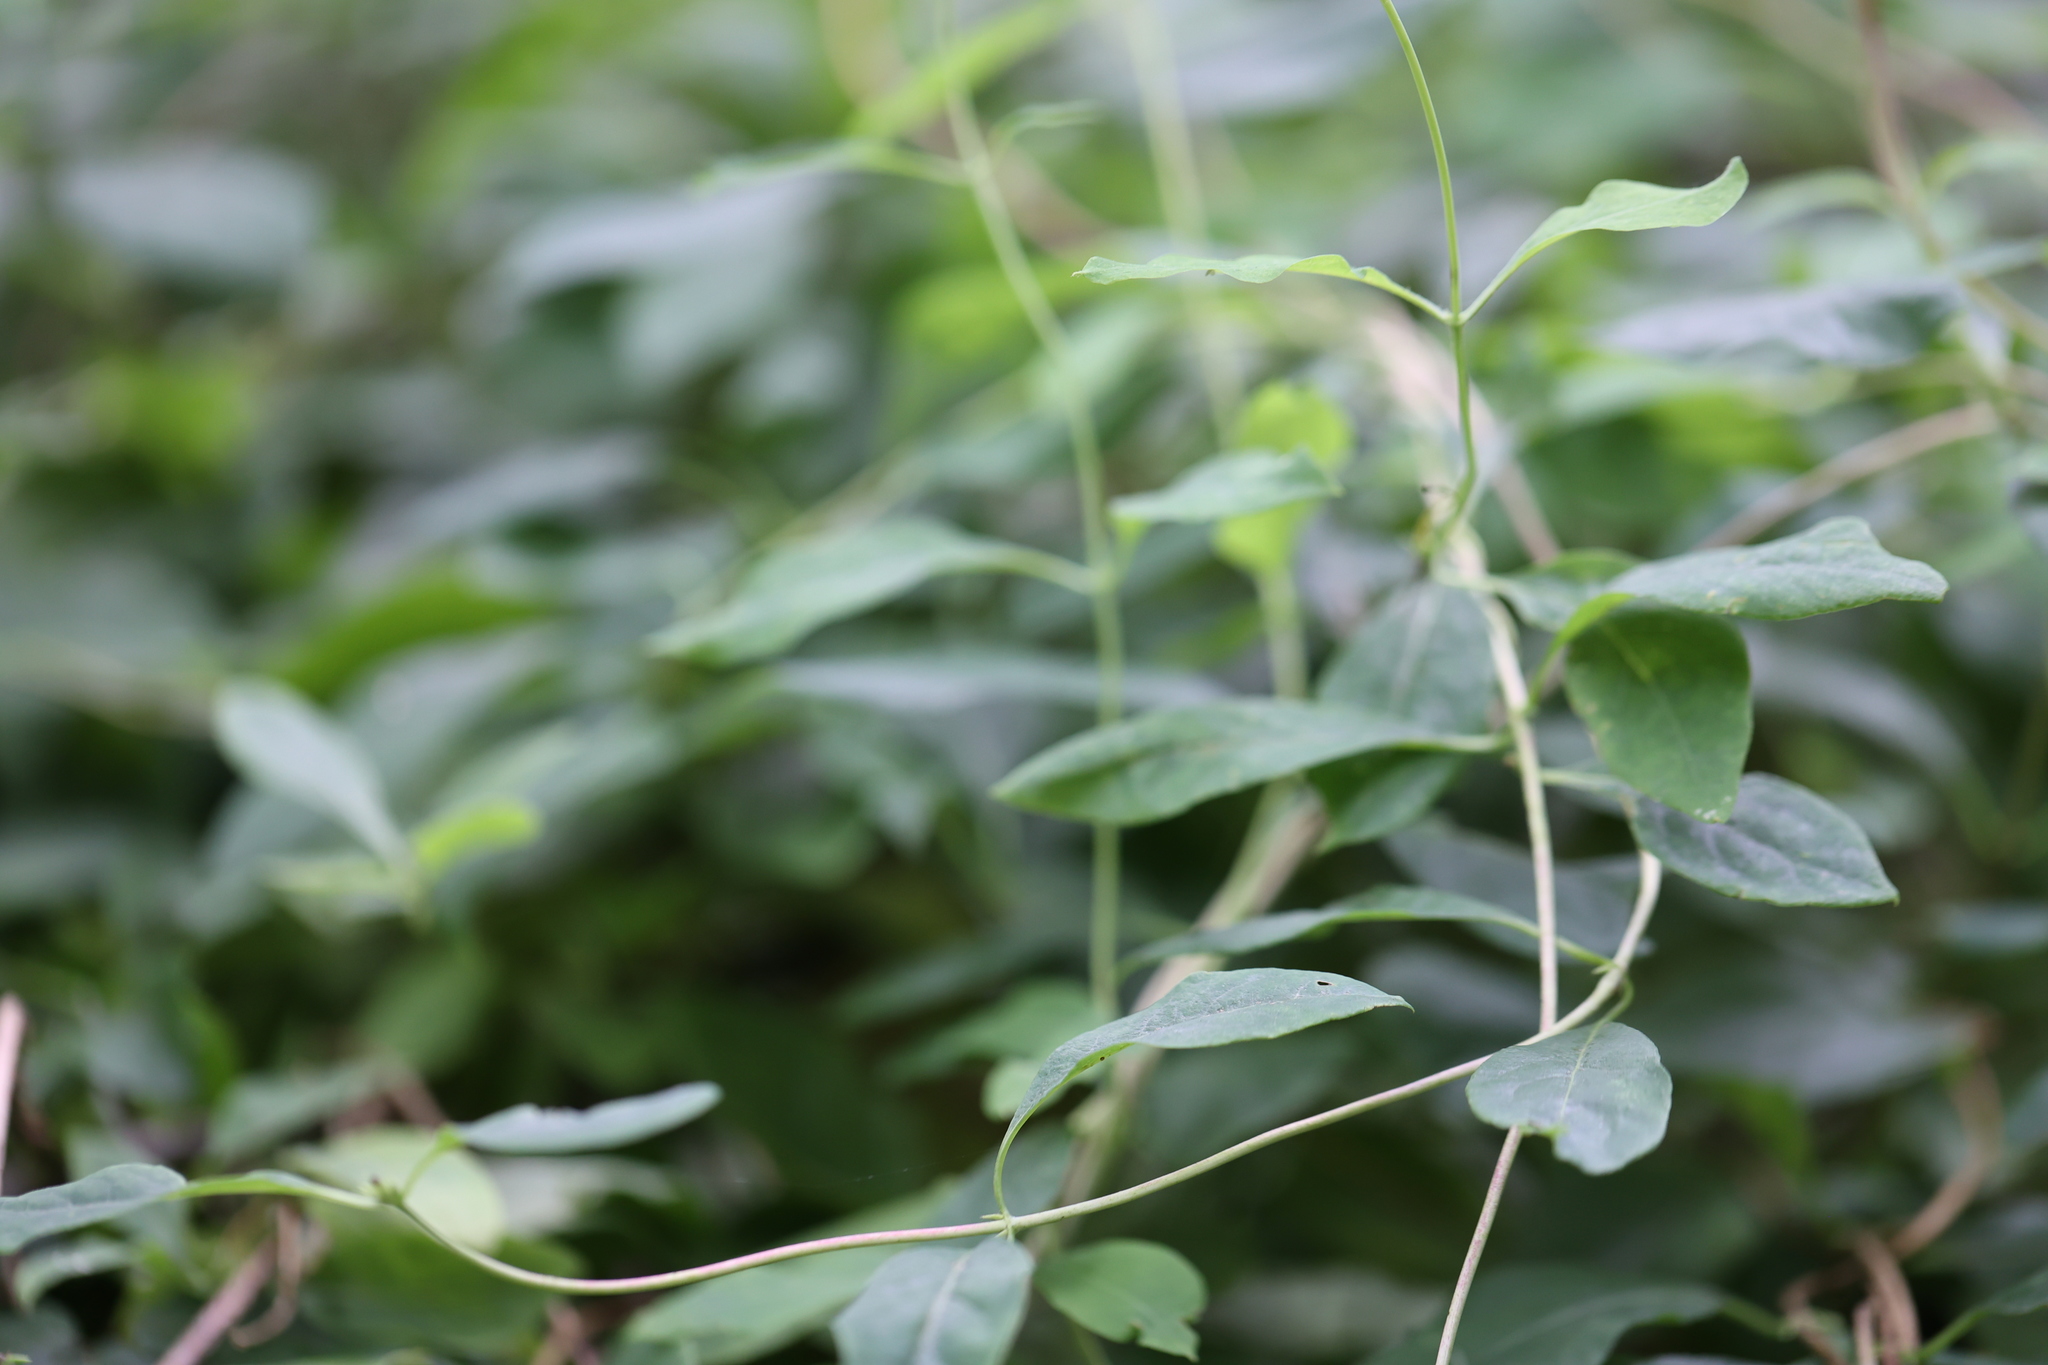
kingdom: Plantae
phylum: Tracheophyta
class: Magnoliopsida
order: Dipsacales
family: Caprifoliaceae
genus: Lonicera
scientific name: Lonicera periclymenum
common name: European honeysuckle
